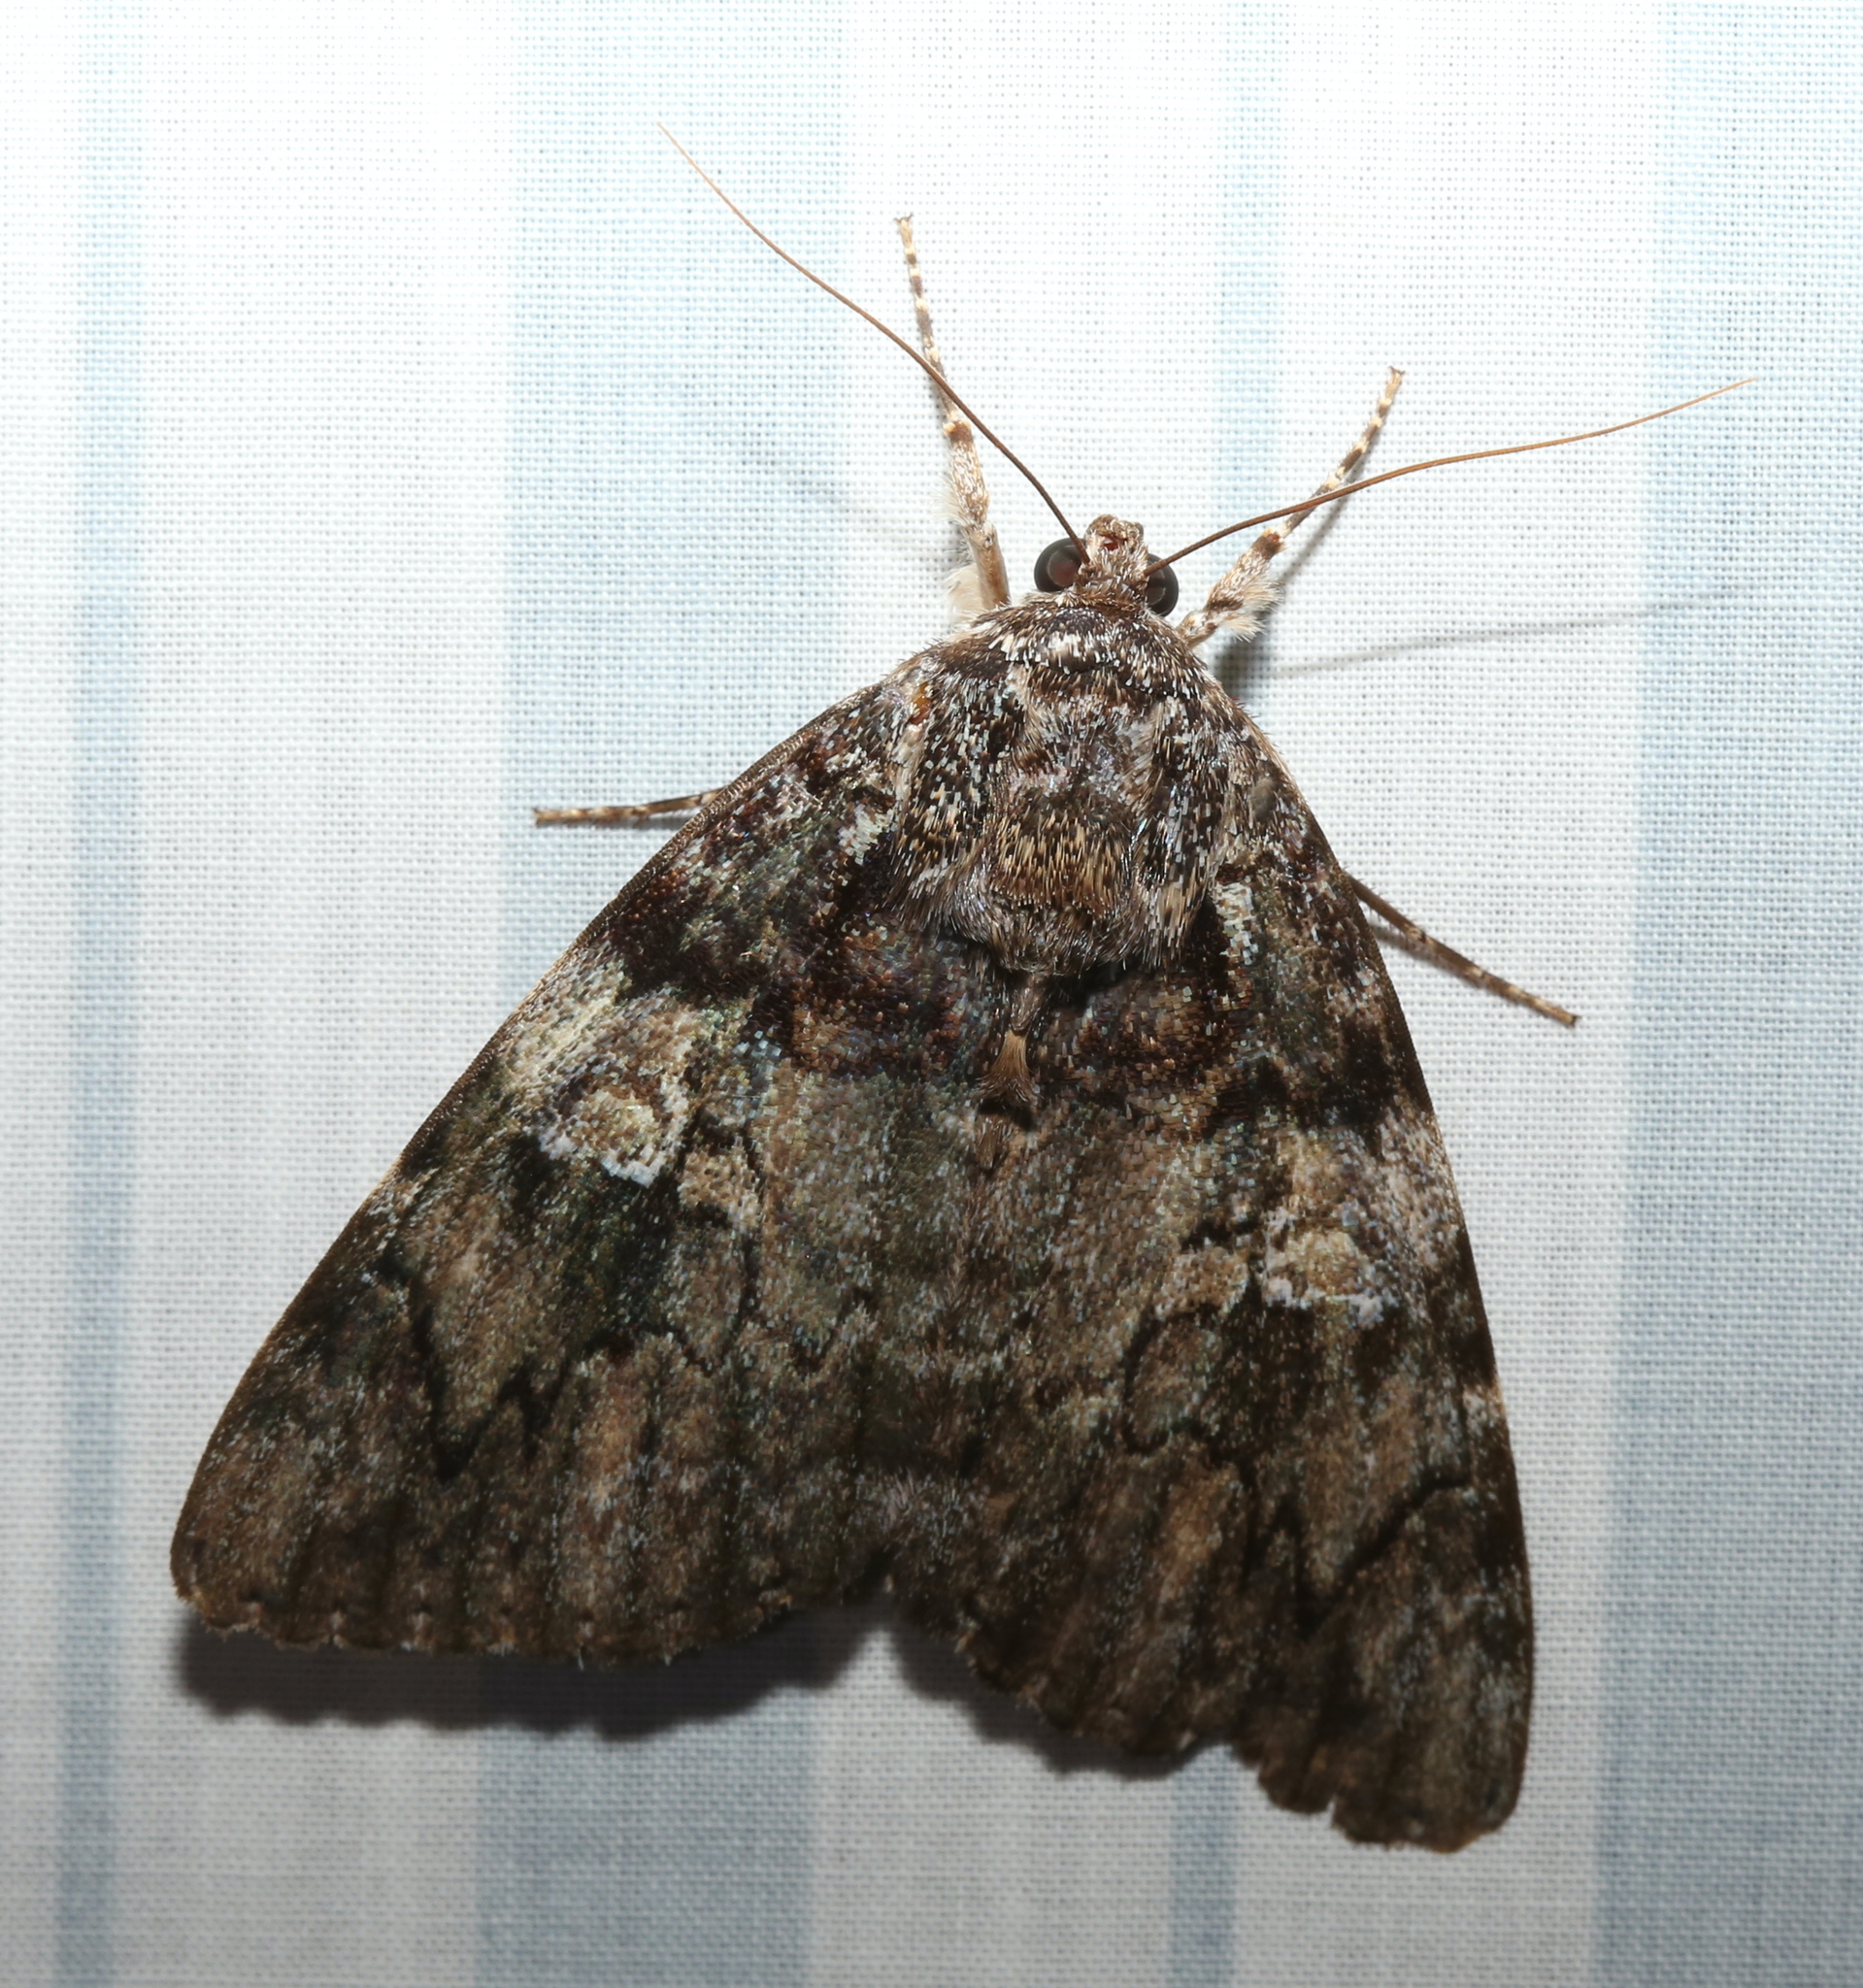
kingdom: Animalia
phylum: Arthropoda
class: Insecta
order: Lepidoptera
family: Erebidae
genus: Catocala
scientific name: Catocala ilia
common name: Ilia underwing
